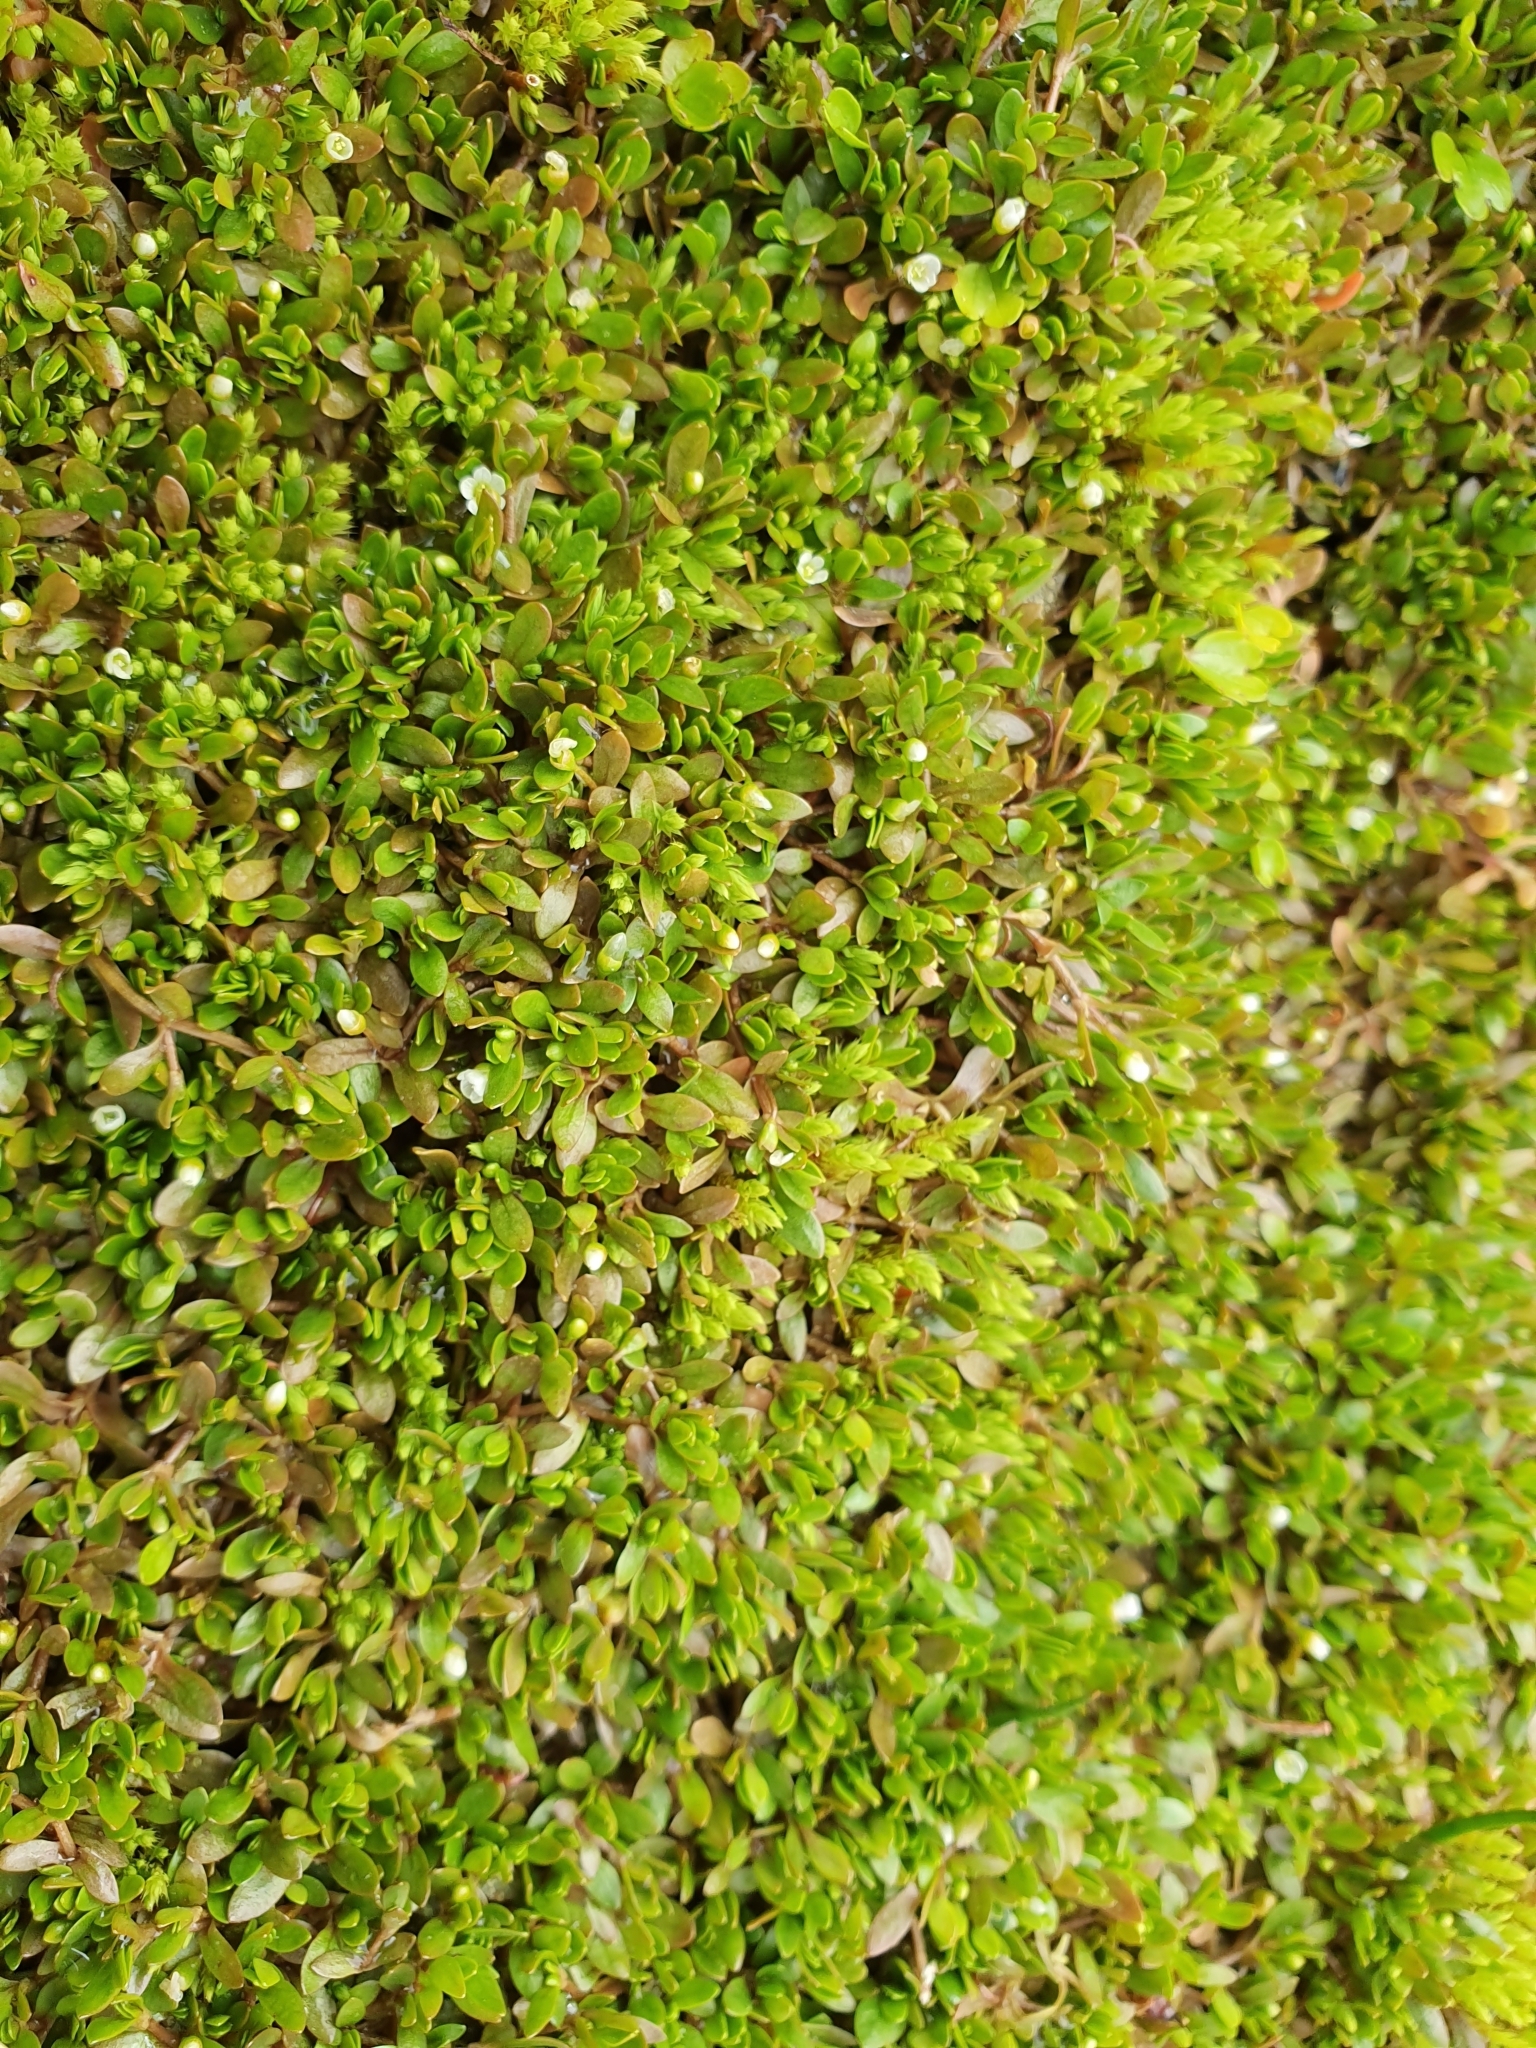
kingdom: Plantae
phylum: Tracheophyta
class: Magnoliopsida
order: Caryophyllales
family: Montiaceae
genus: Montia
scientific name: Montia fontana
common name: Blinks
